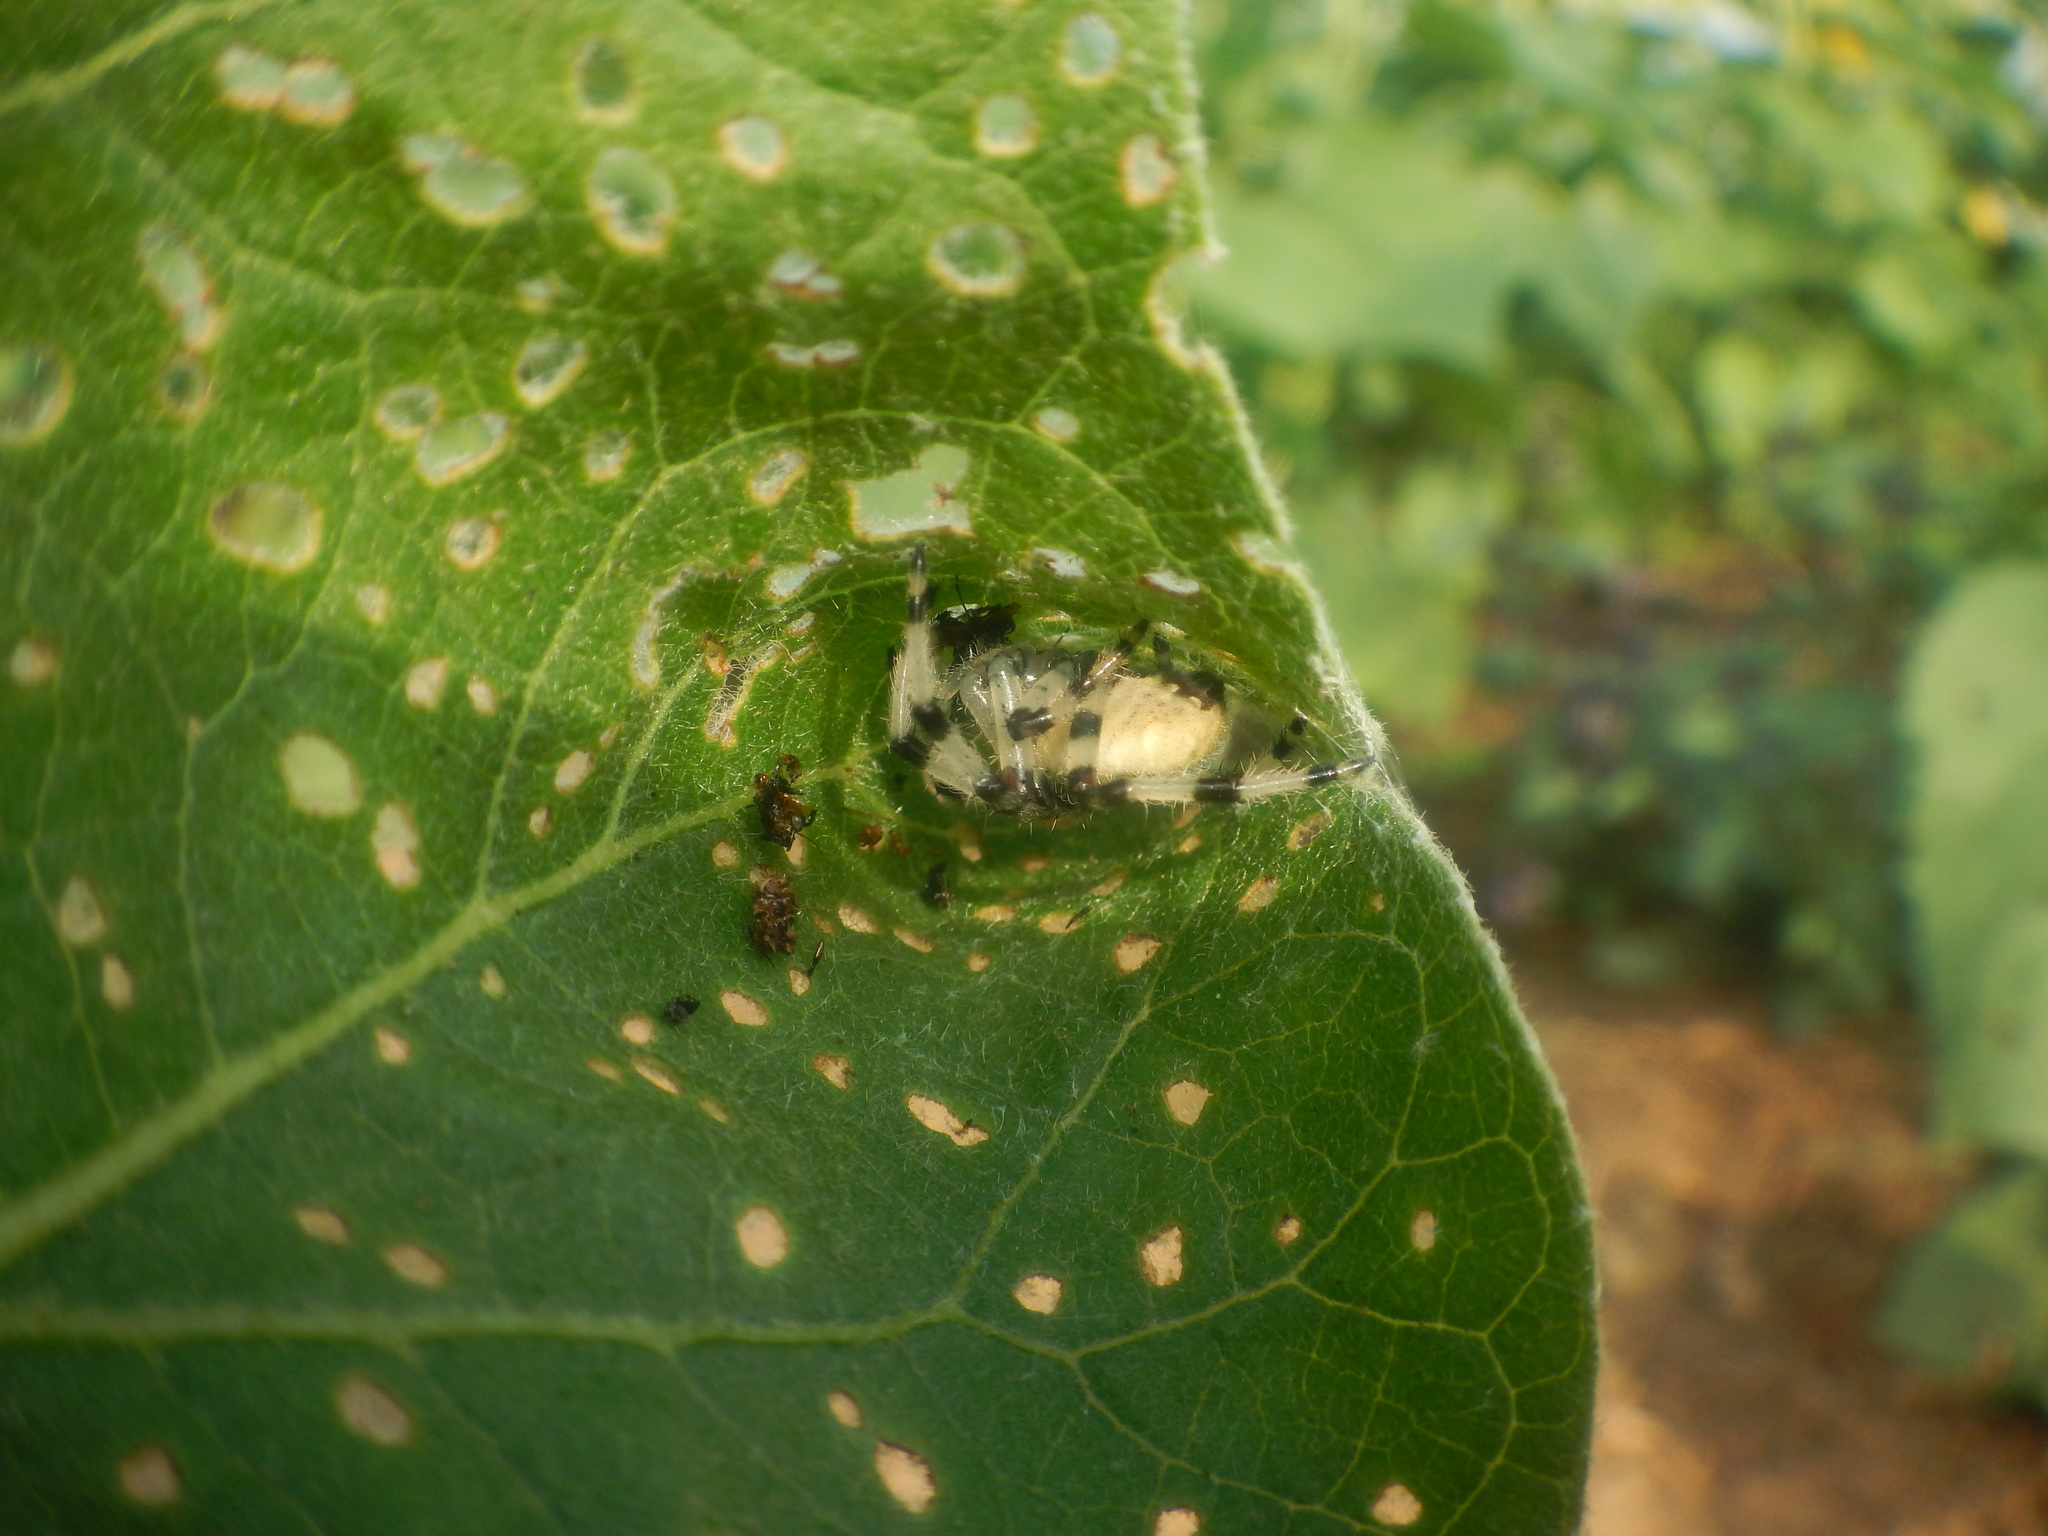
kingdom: Animalia
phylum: Arthropoda
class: Arachnida
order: Araneae
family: Araneidae
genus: Araneus
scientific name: Araneus trifolium
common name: Shamrock orbweaver
